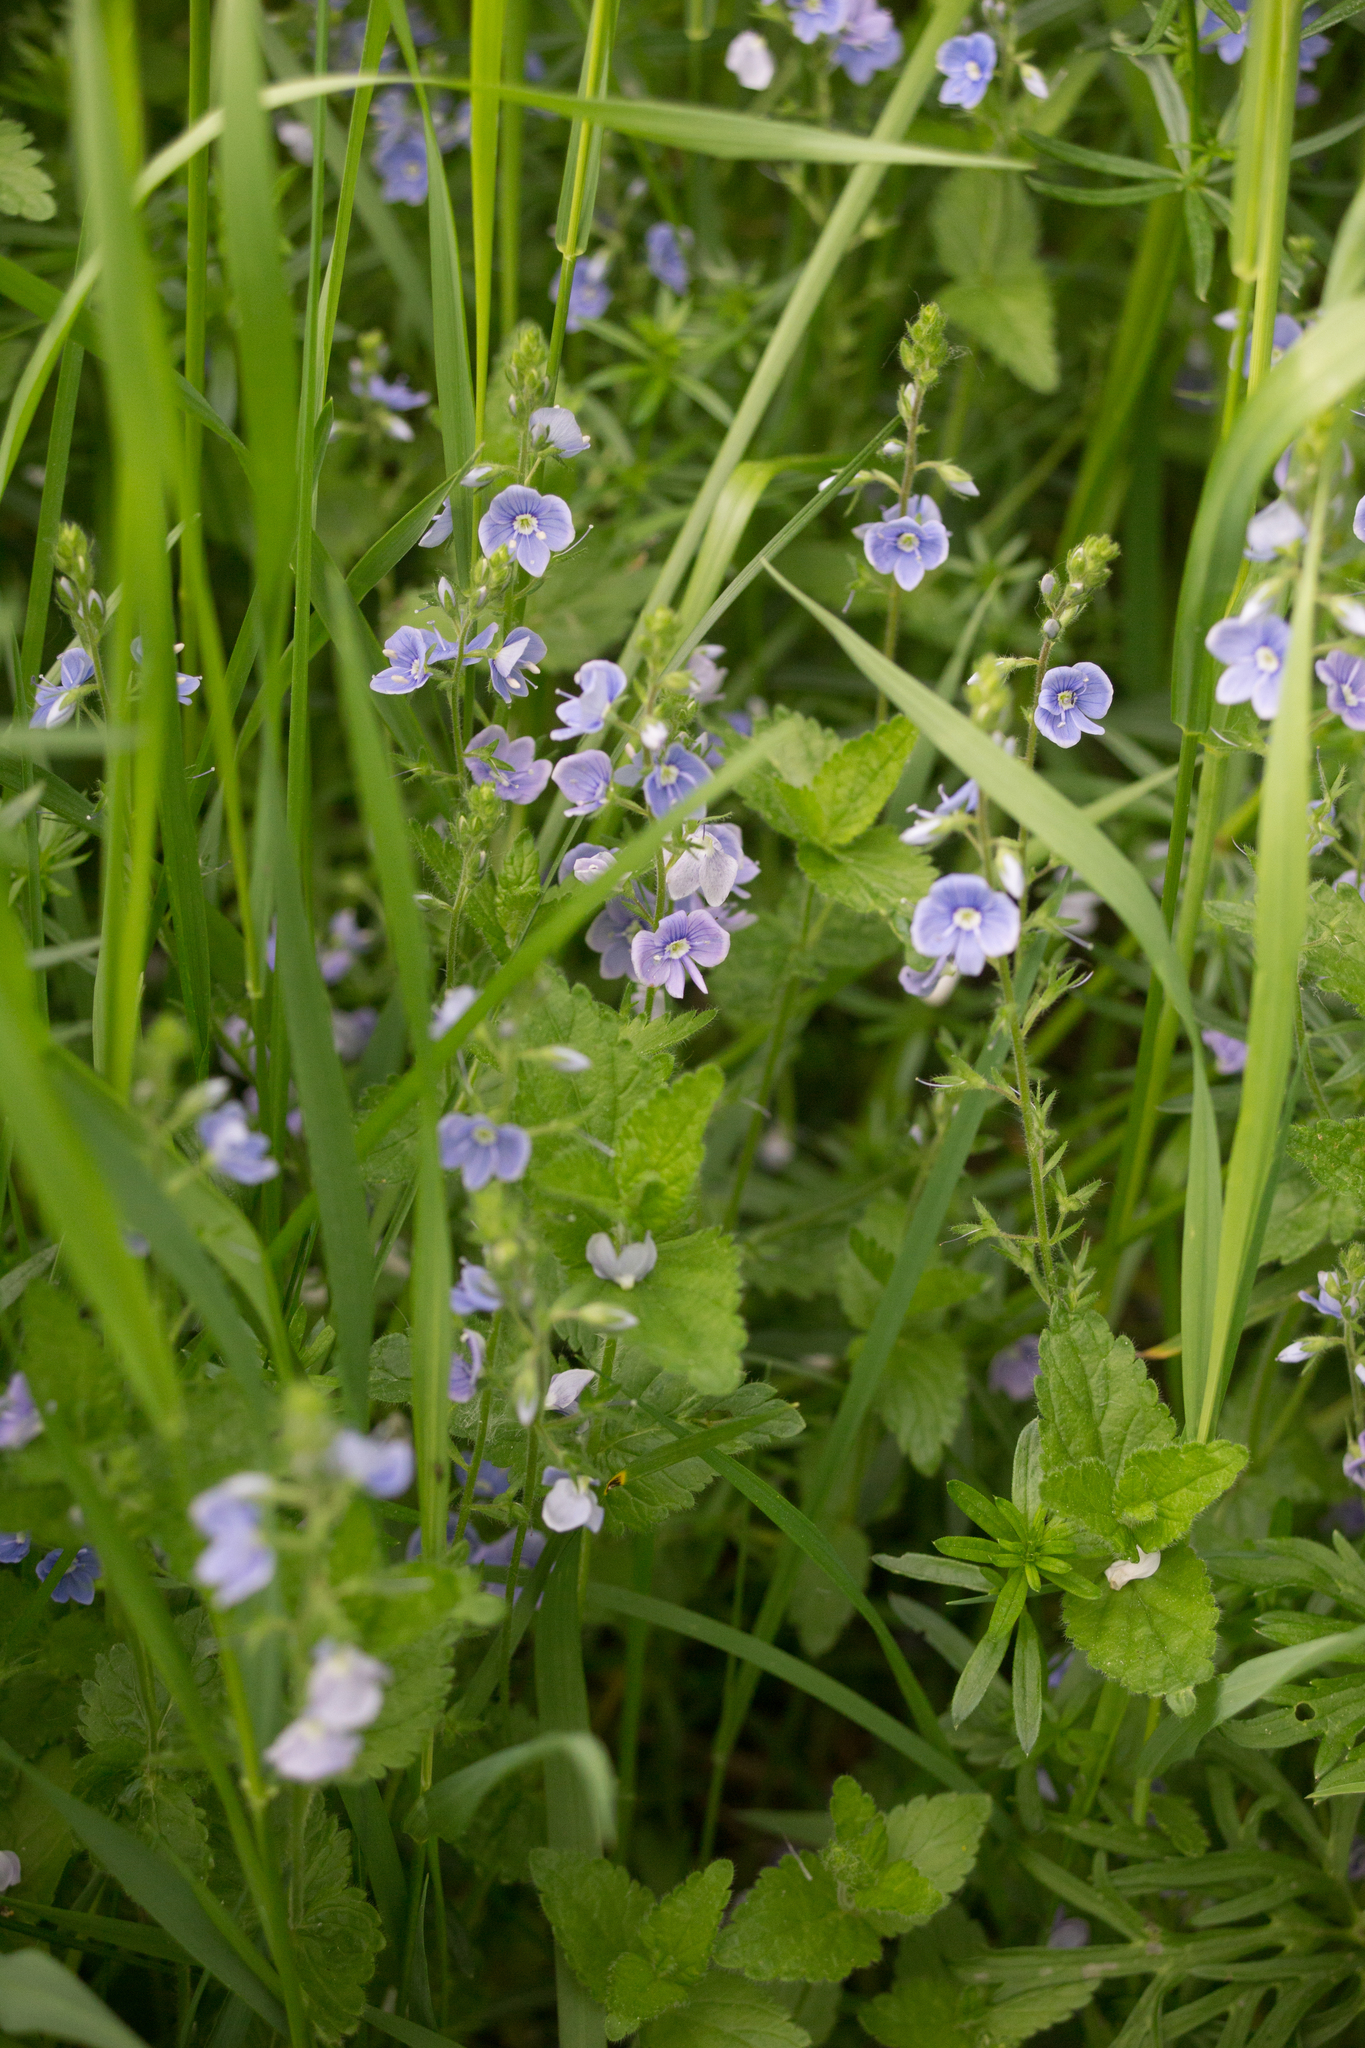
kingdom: Plantae
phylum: Tracheophyta
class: Magnoliopsida
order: Lamiales
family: Plantaginaceae
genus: Veronica
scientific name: Veronica chamaedrys
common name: Germander speedwell
